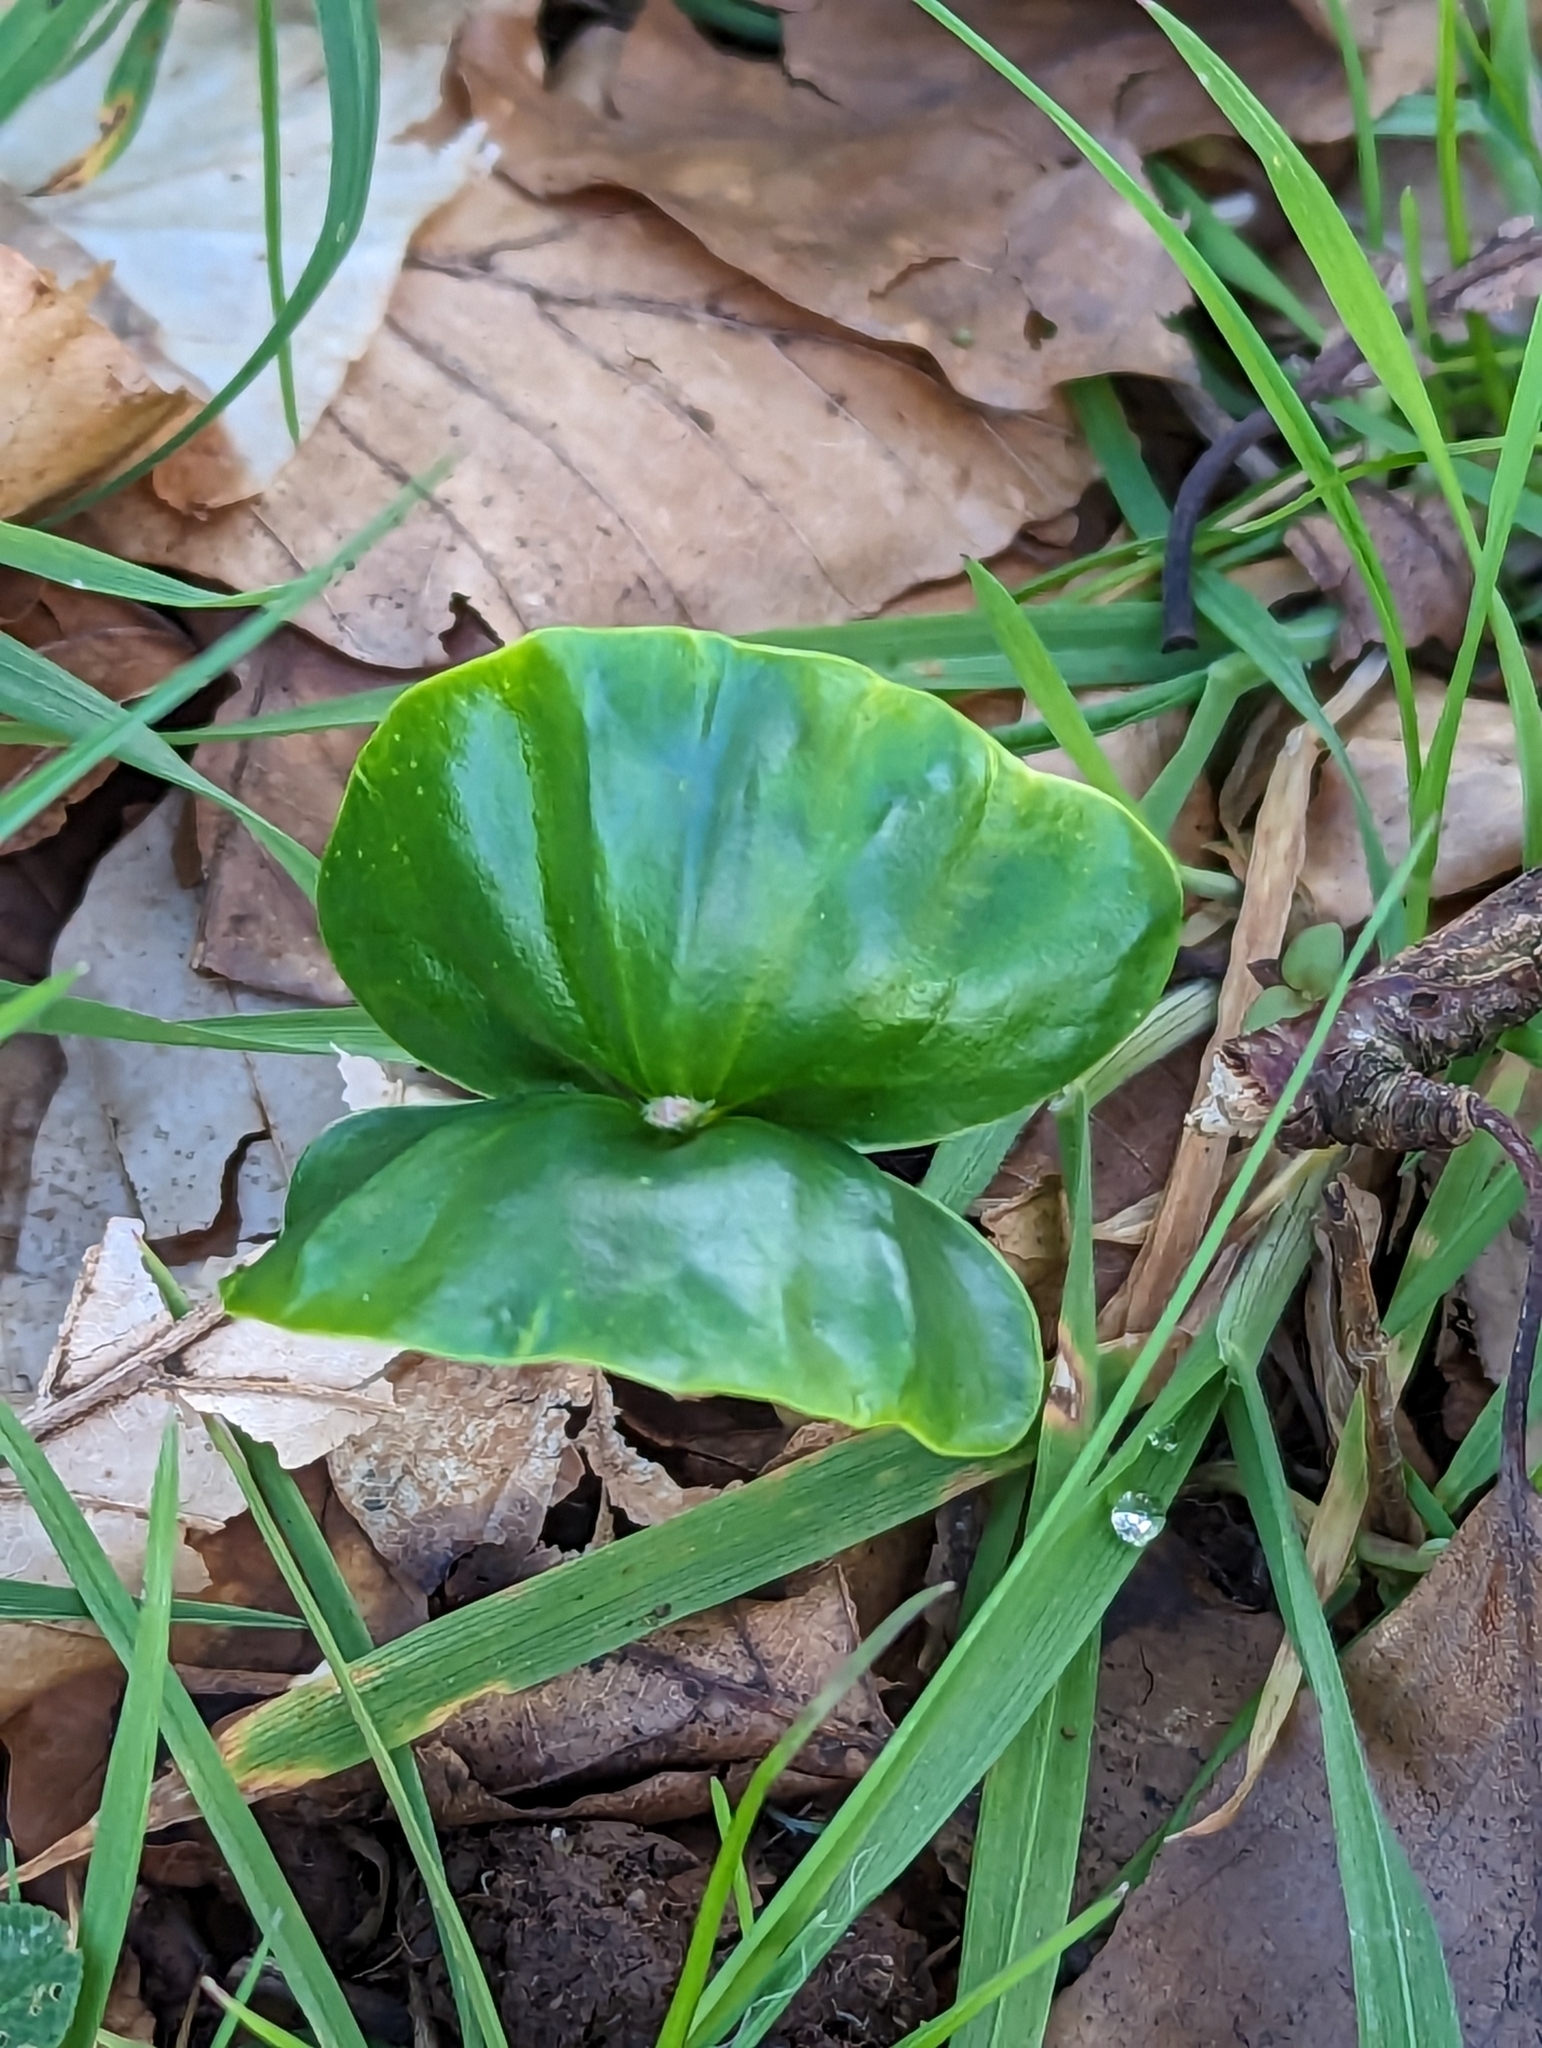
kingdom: Plantae
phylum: Tracheophyta
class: Magnoliopsida
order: Fagales
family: Fagaceae
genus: Fagus
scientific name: Fagus sylvatica
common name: Beech
